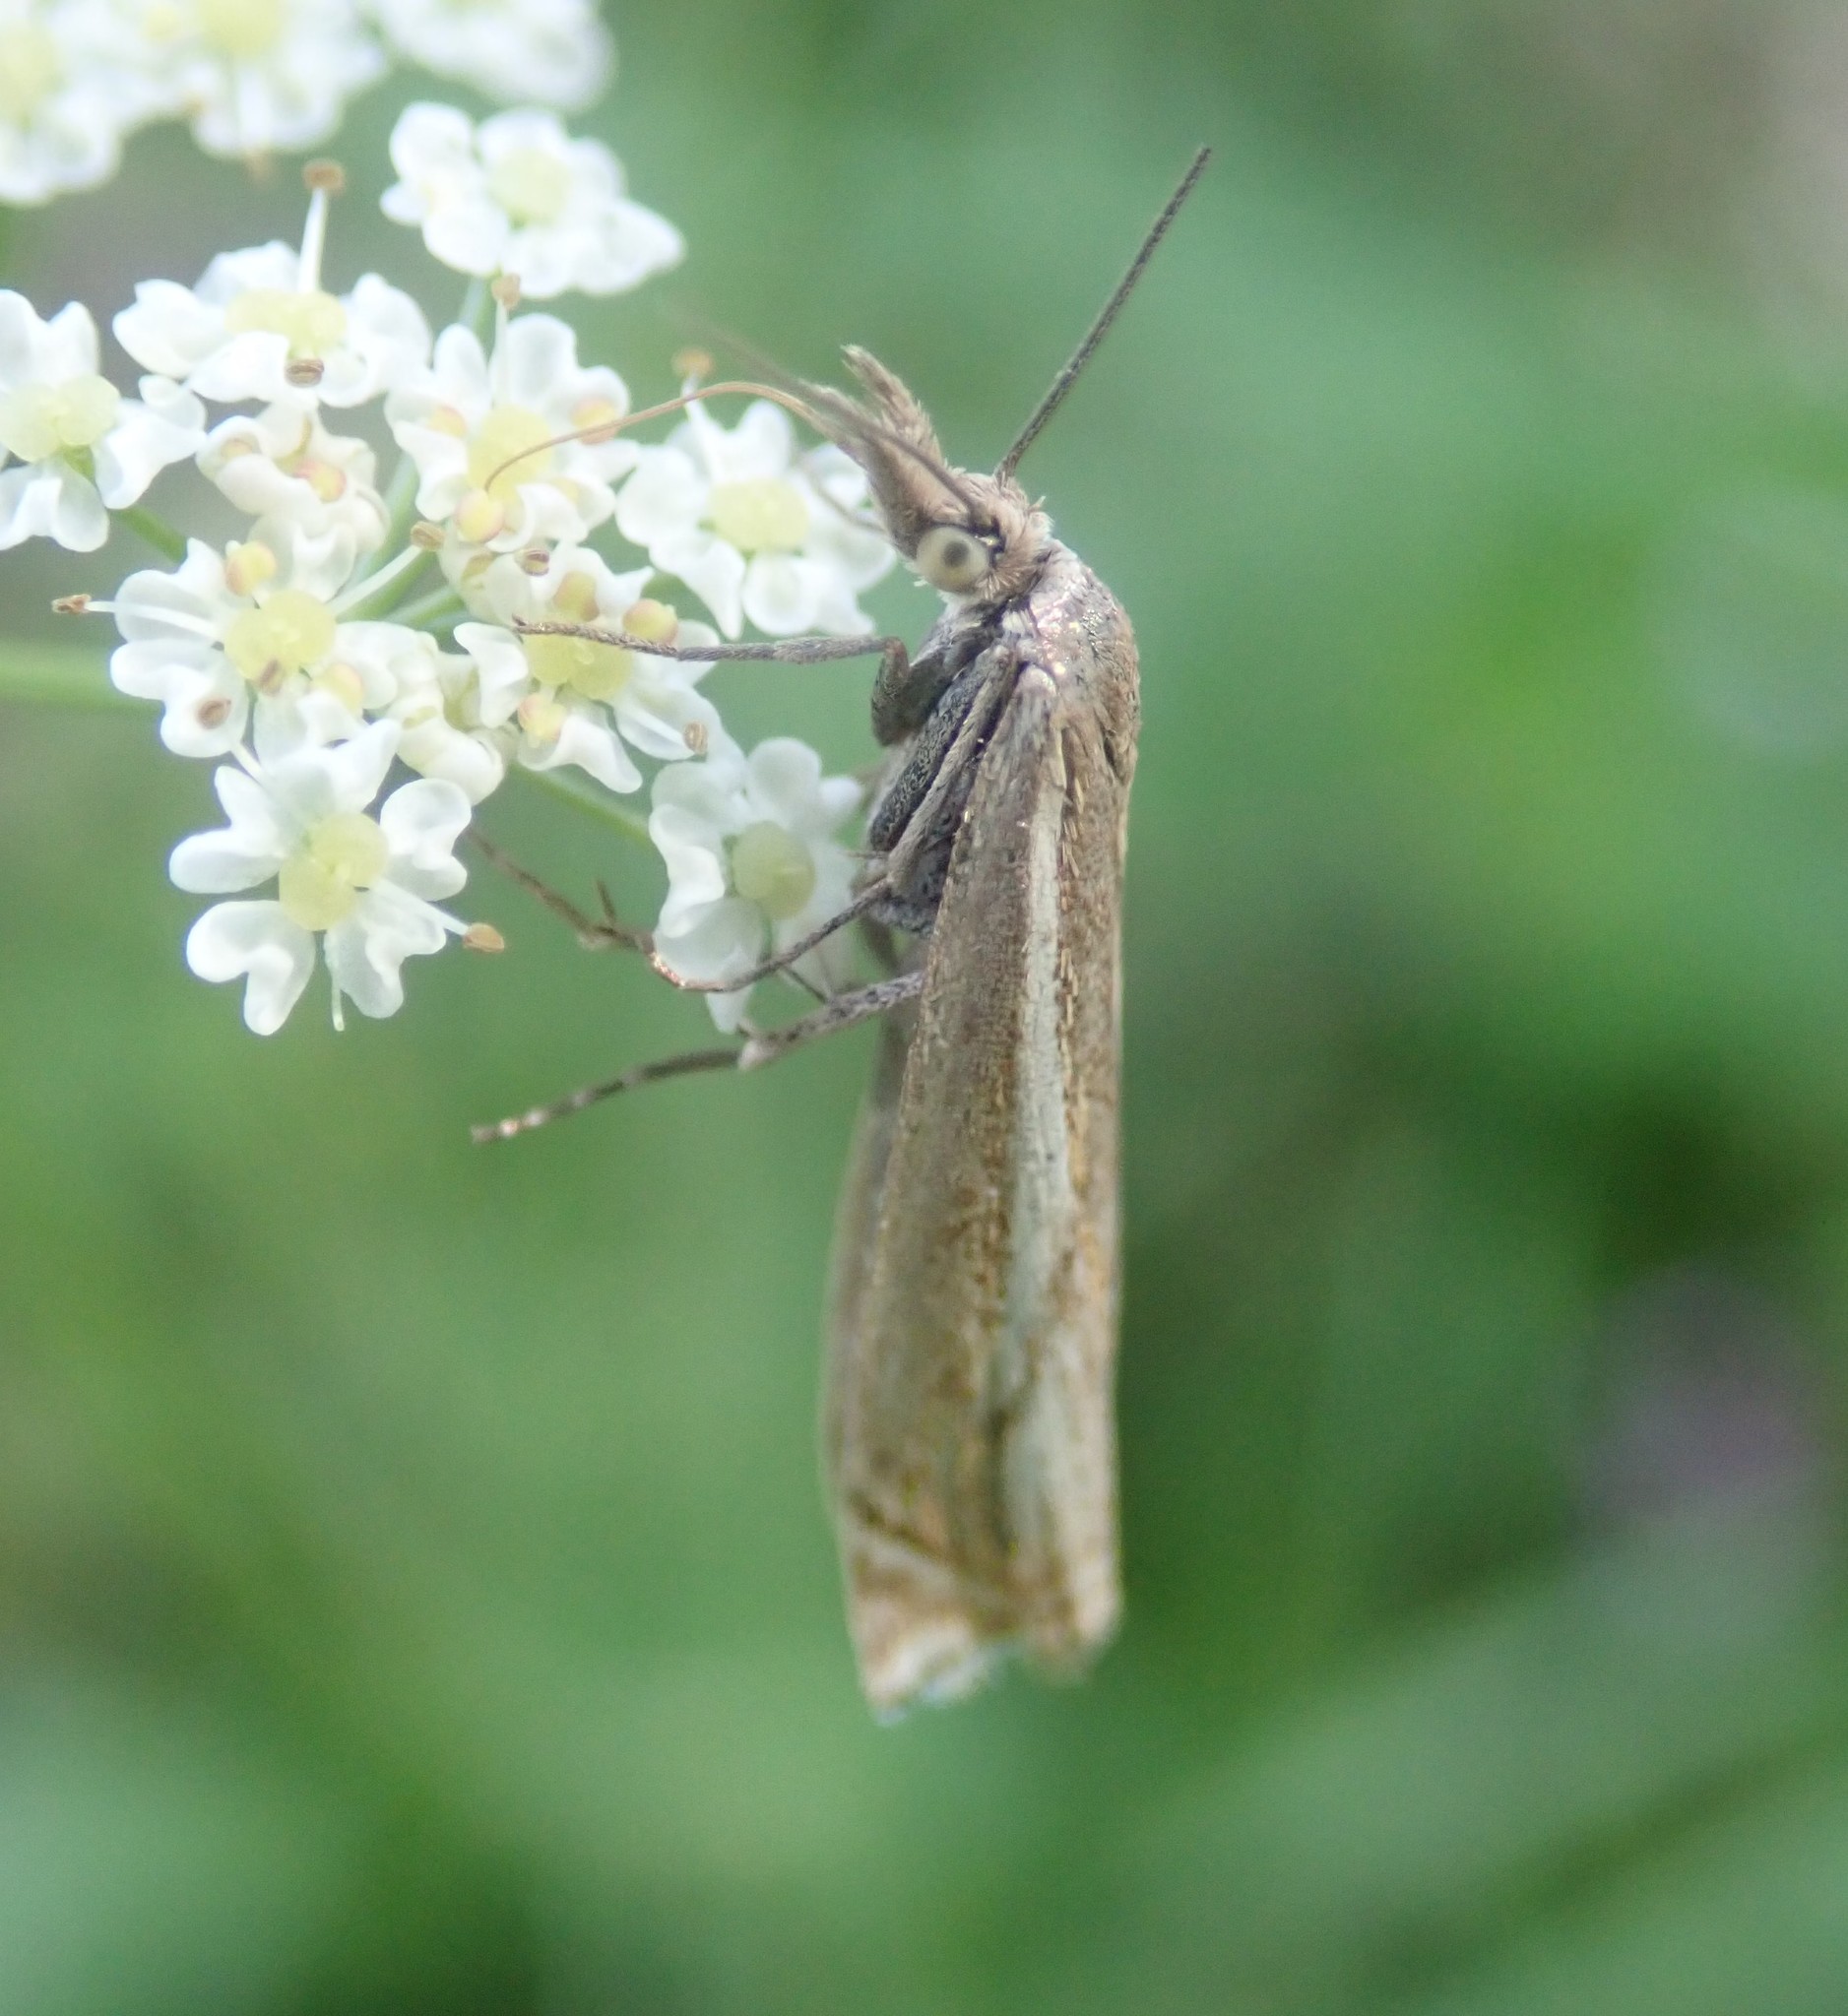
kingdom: Animalia
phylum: Arthropoda
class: Insecta
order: Lepidoptera
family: Crambidae
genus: Crambus
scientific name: Crambus nemorella
